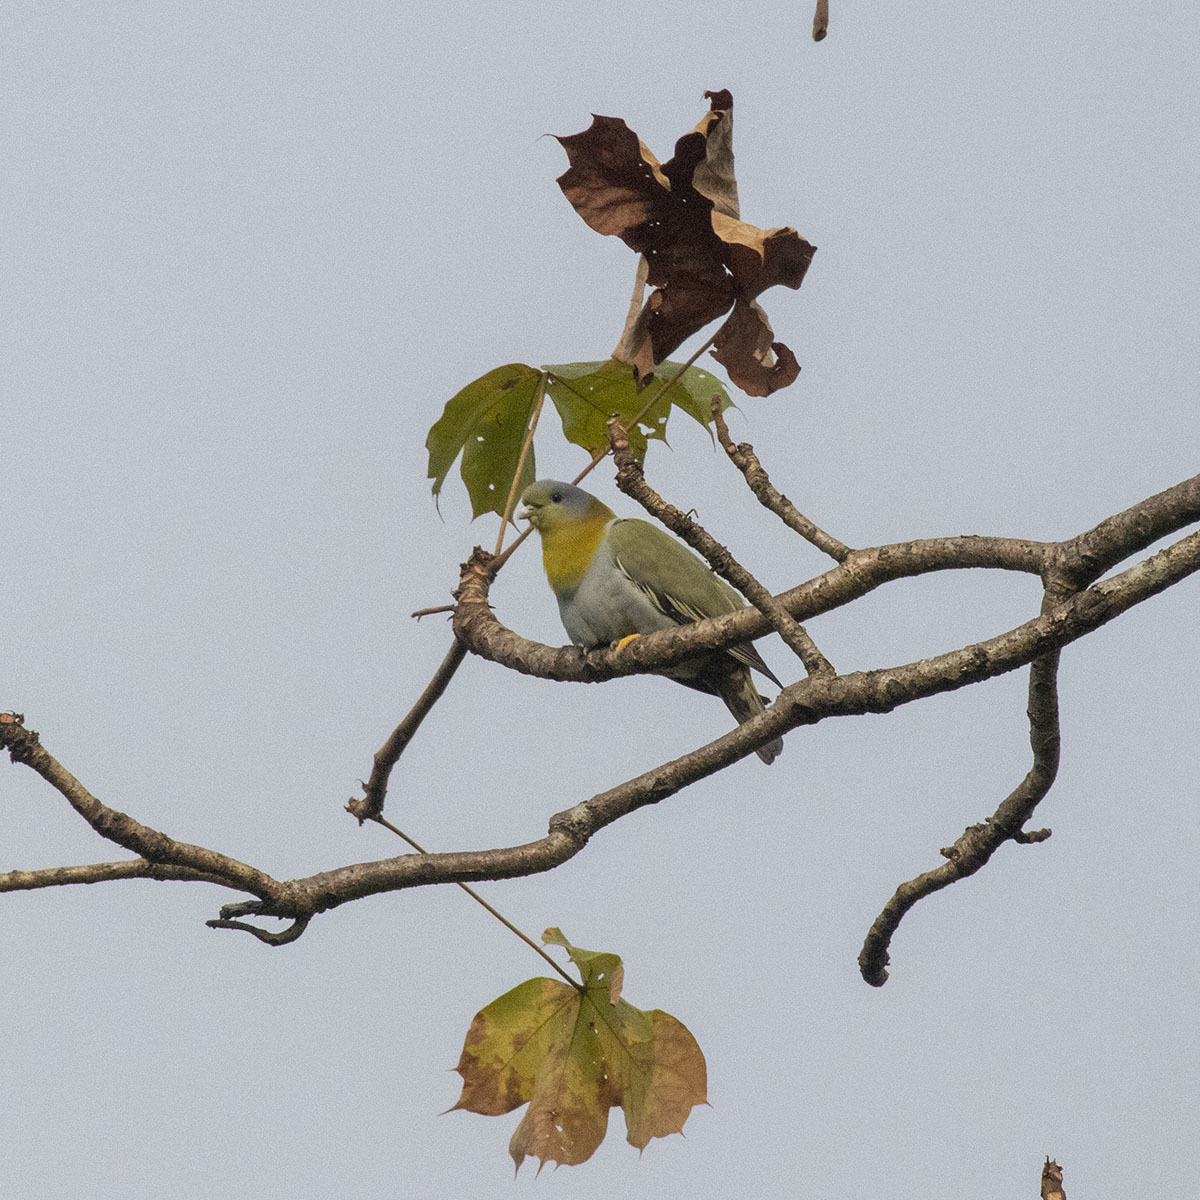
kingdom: Animalia
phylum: Chordata
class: Aves
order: Columbiformes
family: Columbidae
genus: Treron
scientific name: Treron phoenicopterus
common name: Yellow-footed green pigeon
